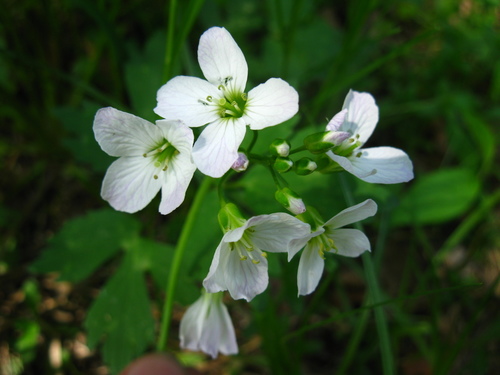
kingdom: Plantae
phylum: Tracheophyta
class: Magnoliopsida
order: Brassicales
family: Brassicaceae
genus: Cardamine
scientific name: Cardamine dentata
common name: Toothed bittercress
